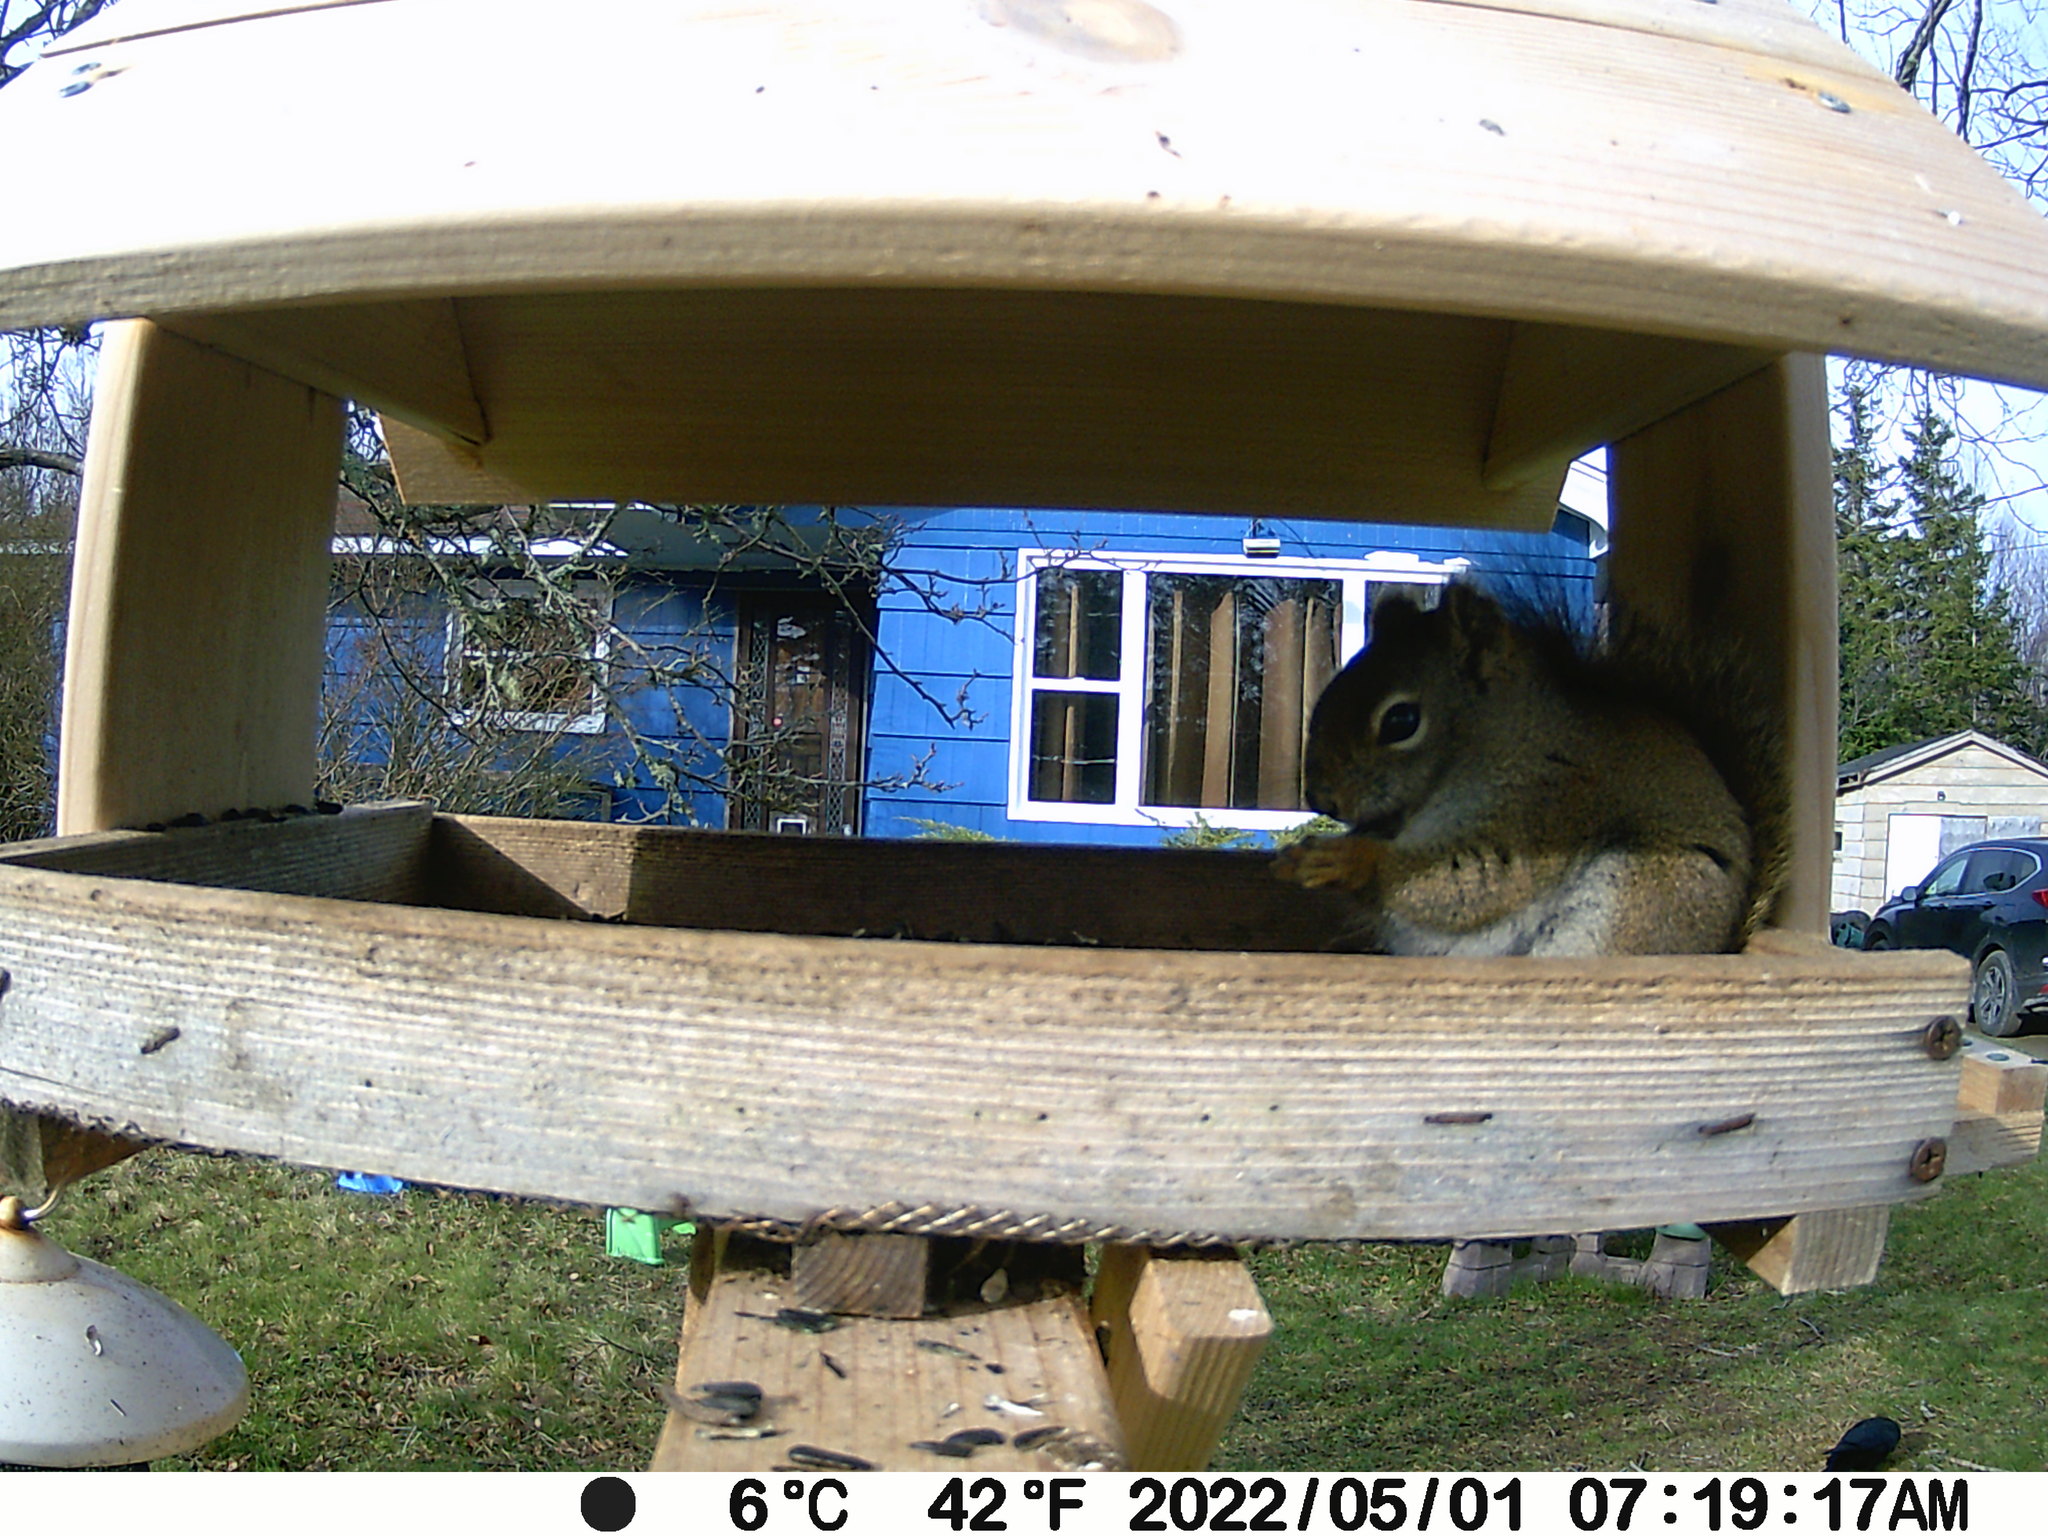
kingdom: Animalia
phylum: Chordata
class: Mammalia
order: Rodentia
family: Sciuridae
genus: Tamiasciurus
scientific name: Tamiasciurus hudsonicus
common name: Red squirrel
